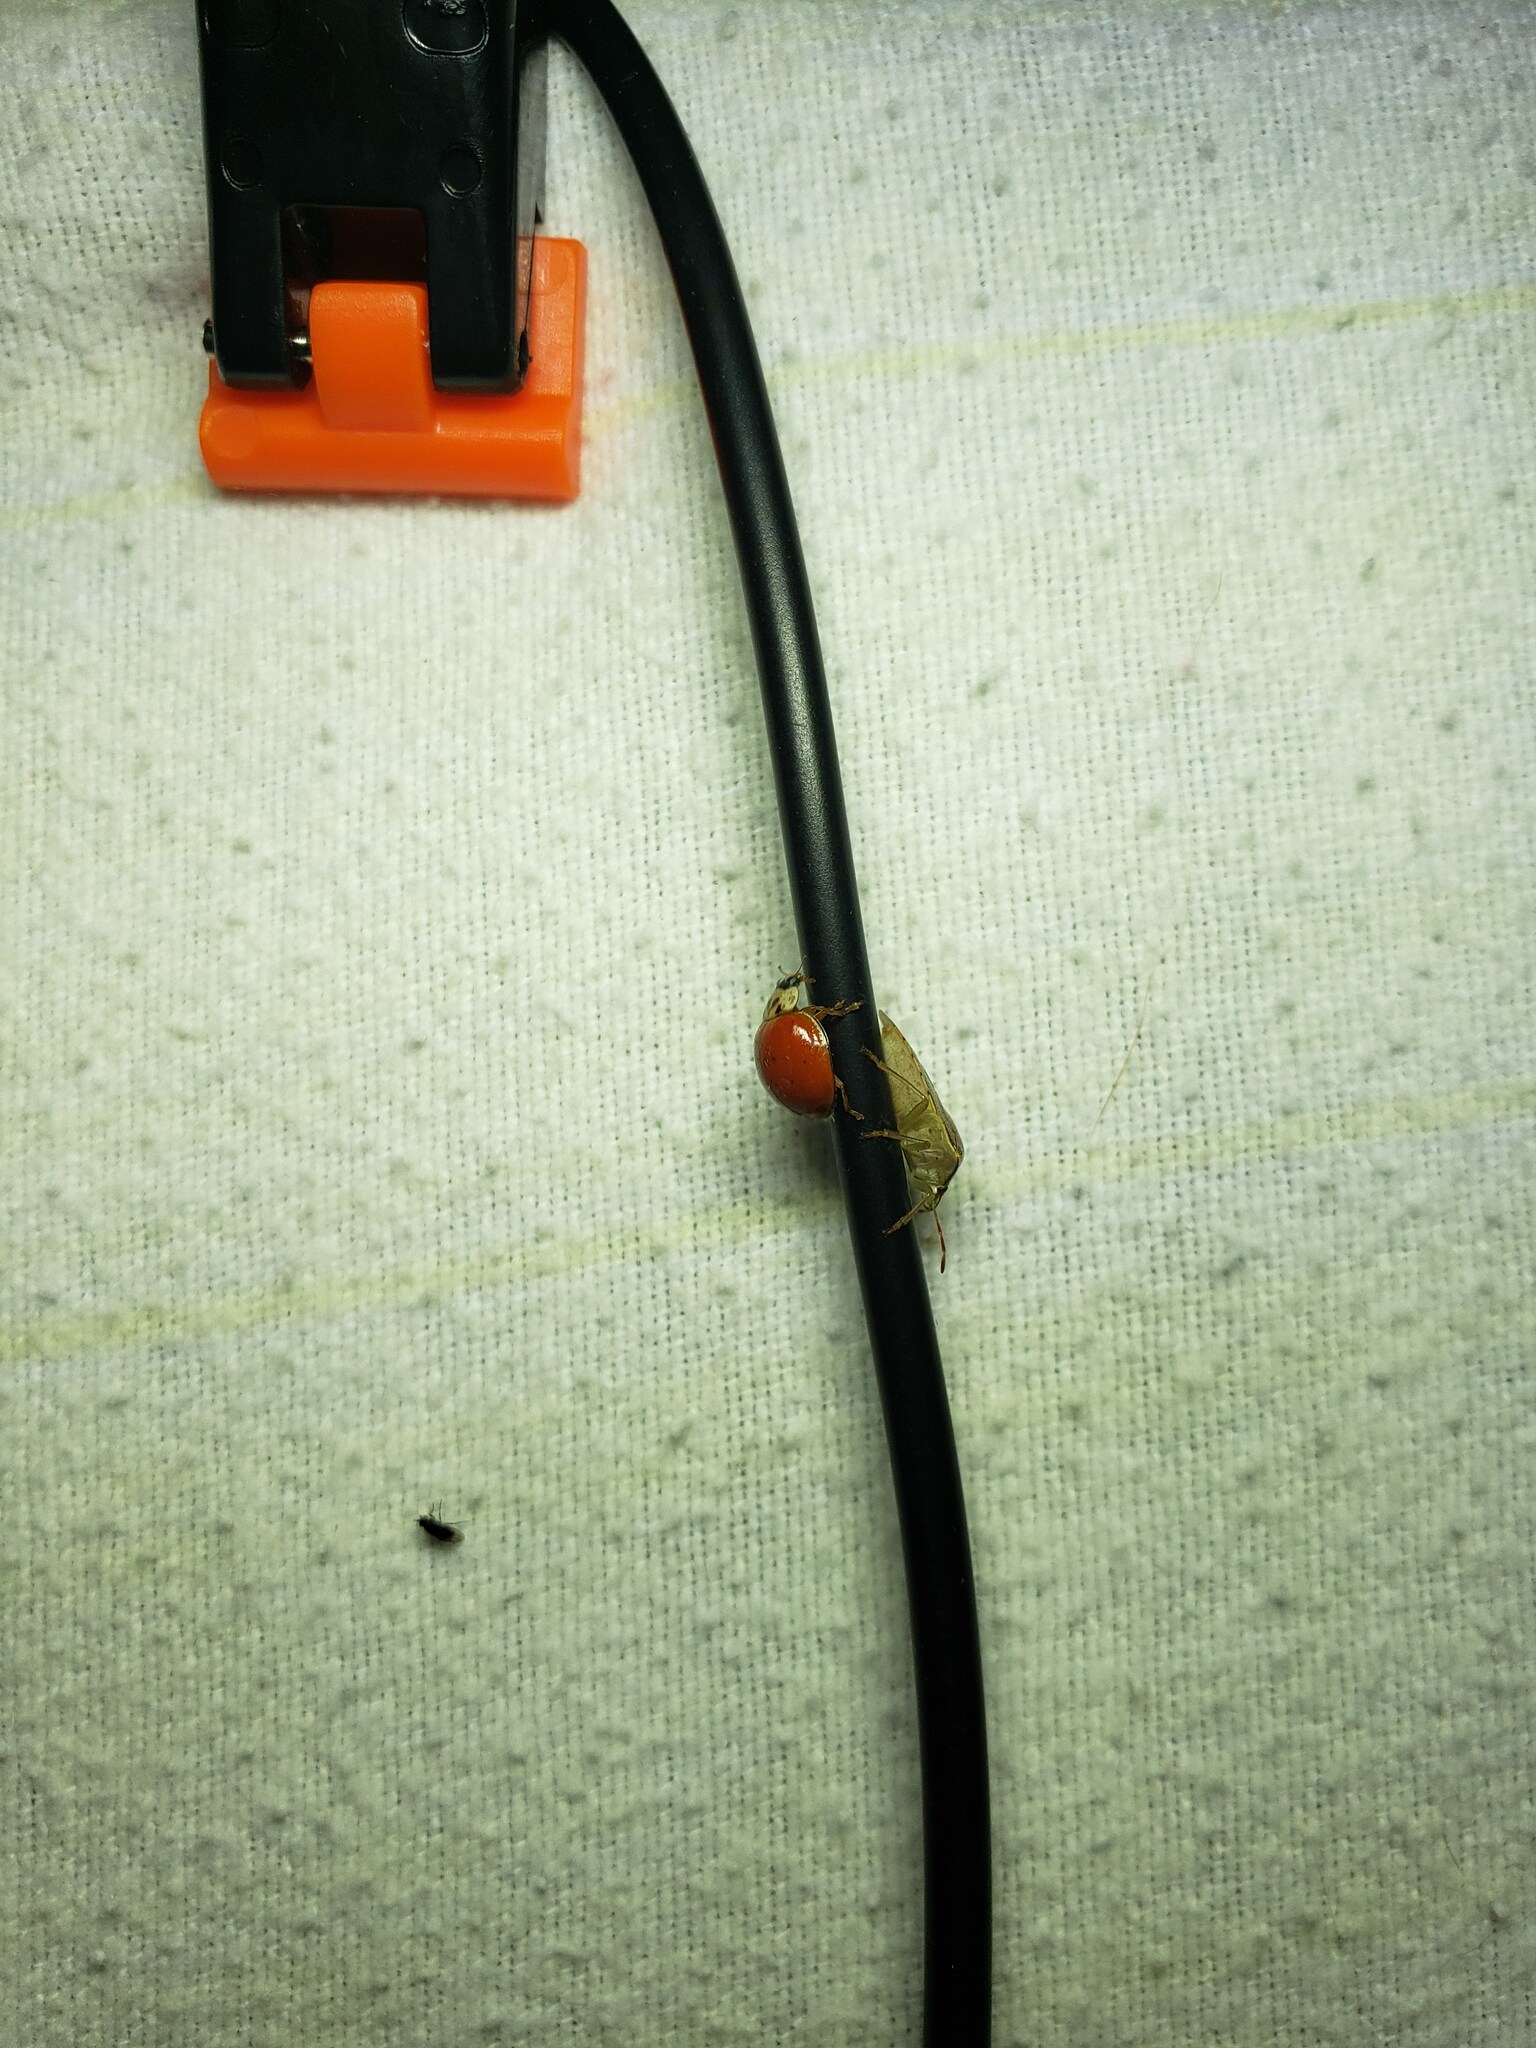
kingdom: Animalia
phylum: Arthropoda
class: Insecta
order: Coleoptera
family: Coccinellidae
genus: Harmonia
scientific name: Harmonia axyridis
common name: Harlequin ladybird
